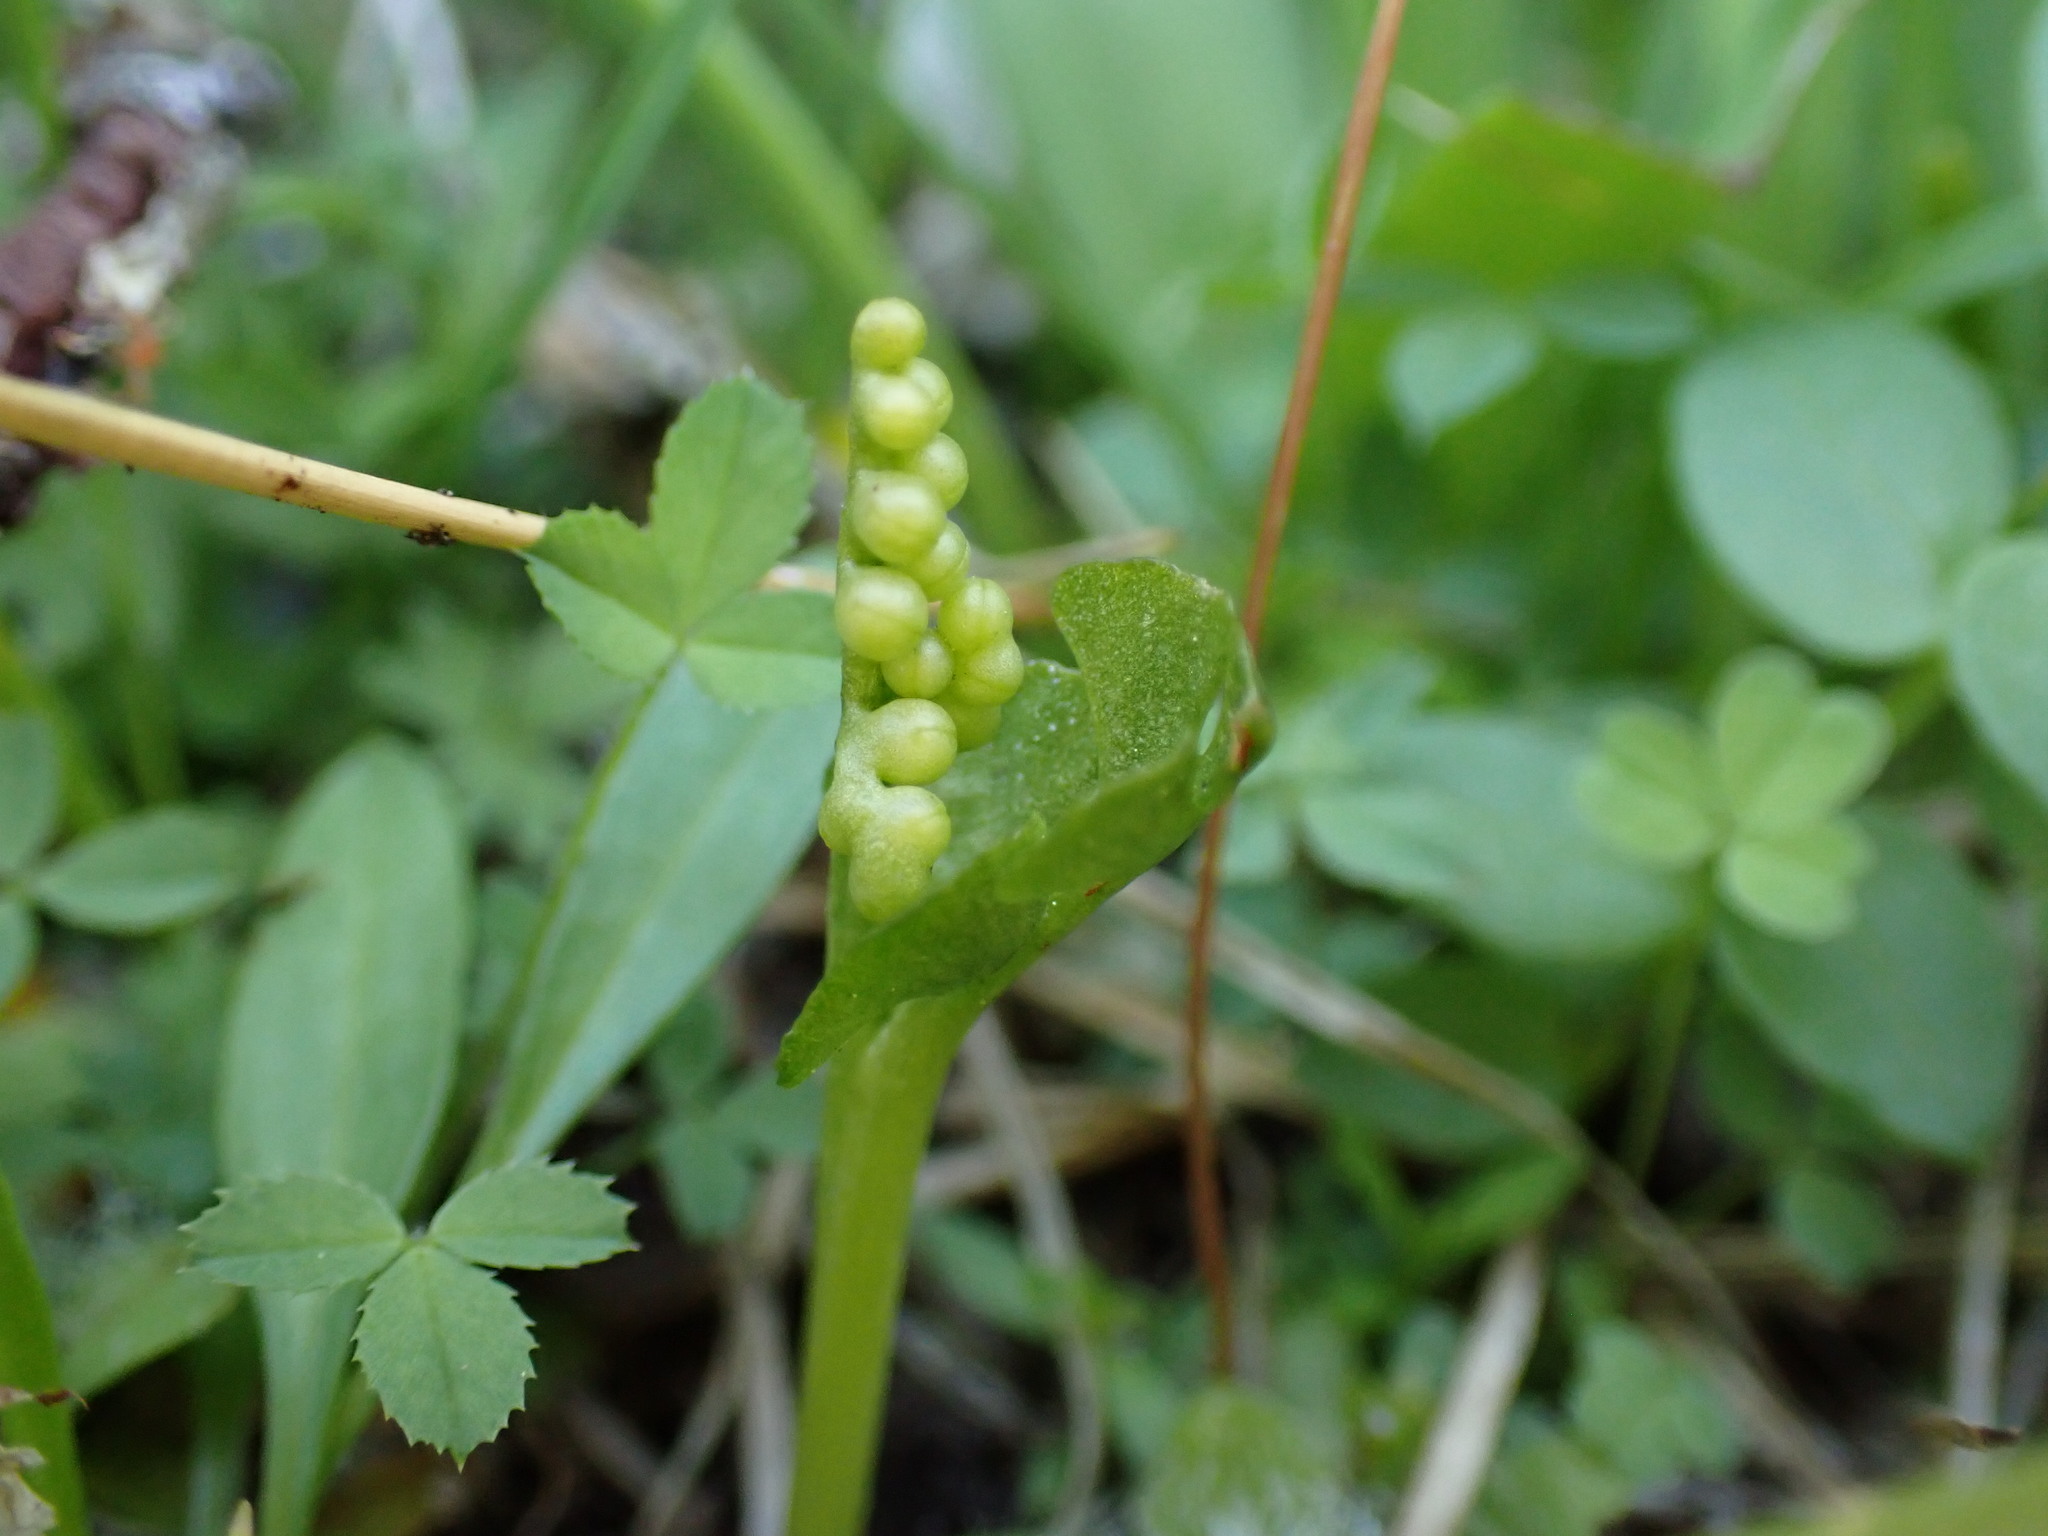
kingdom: Plantae
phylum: Tracheophyta
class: Polypodiopsida
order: Ophioglossales
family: Ophioglossaceae
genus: Botrychium
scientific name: Botrychium crenulatum
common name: Crenulate moonwort
